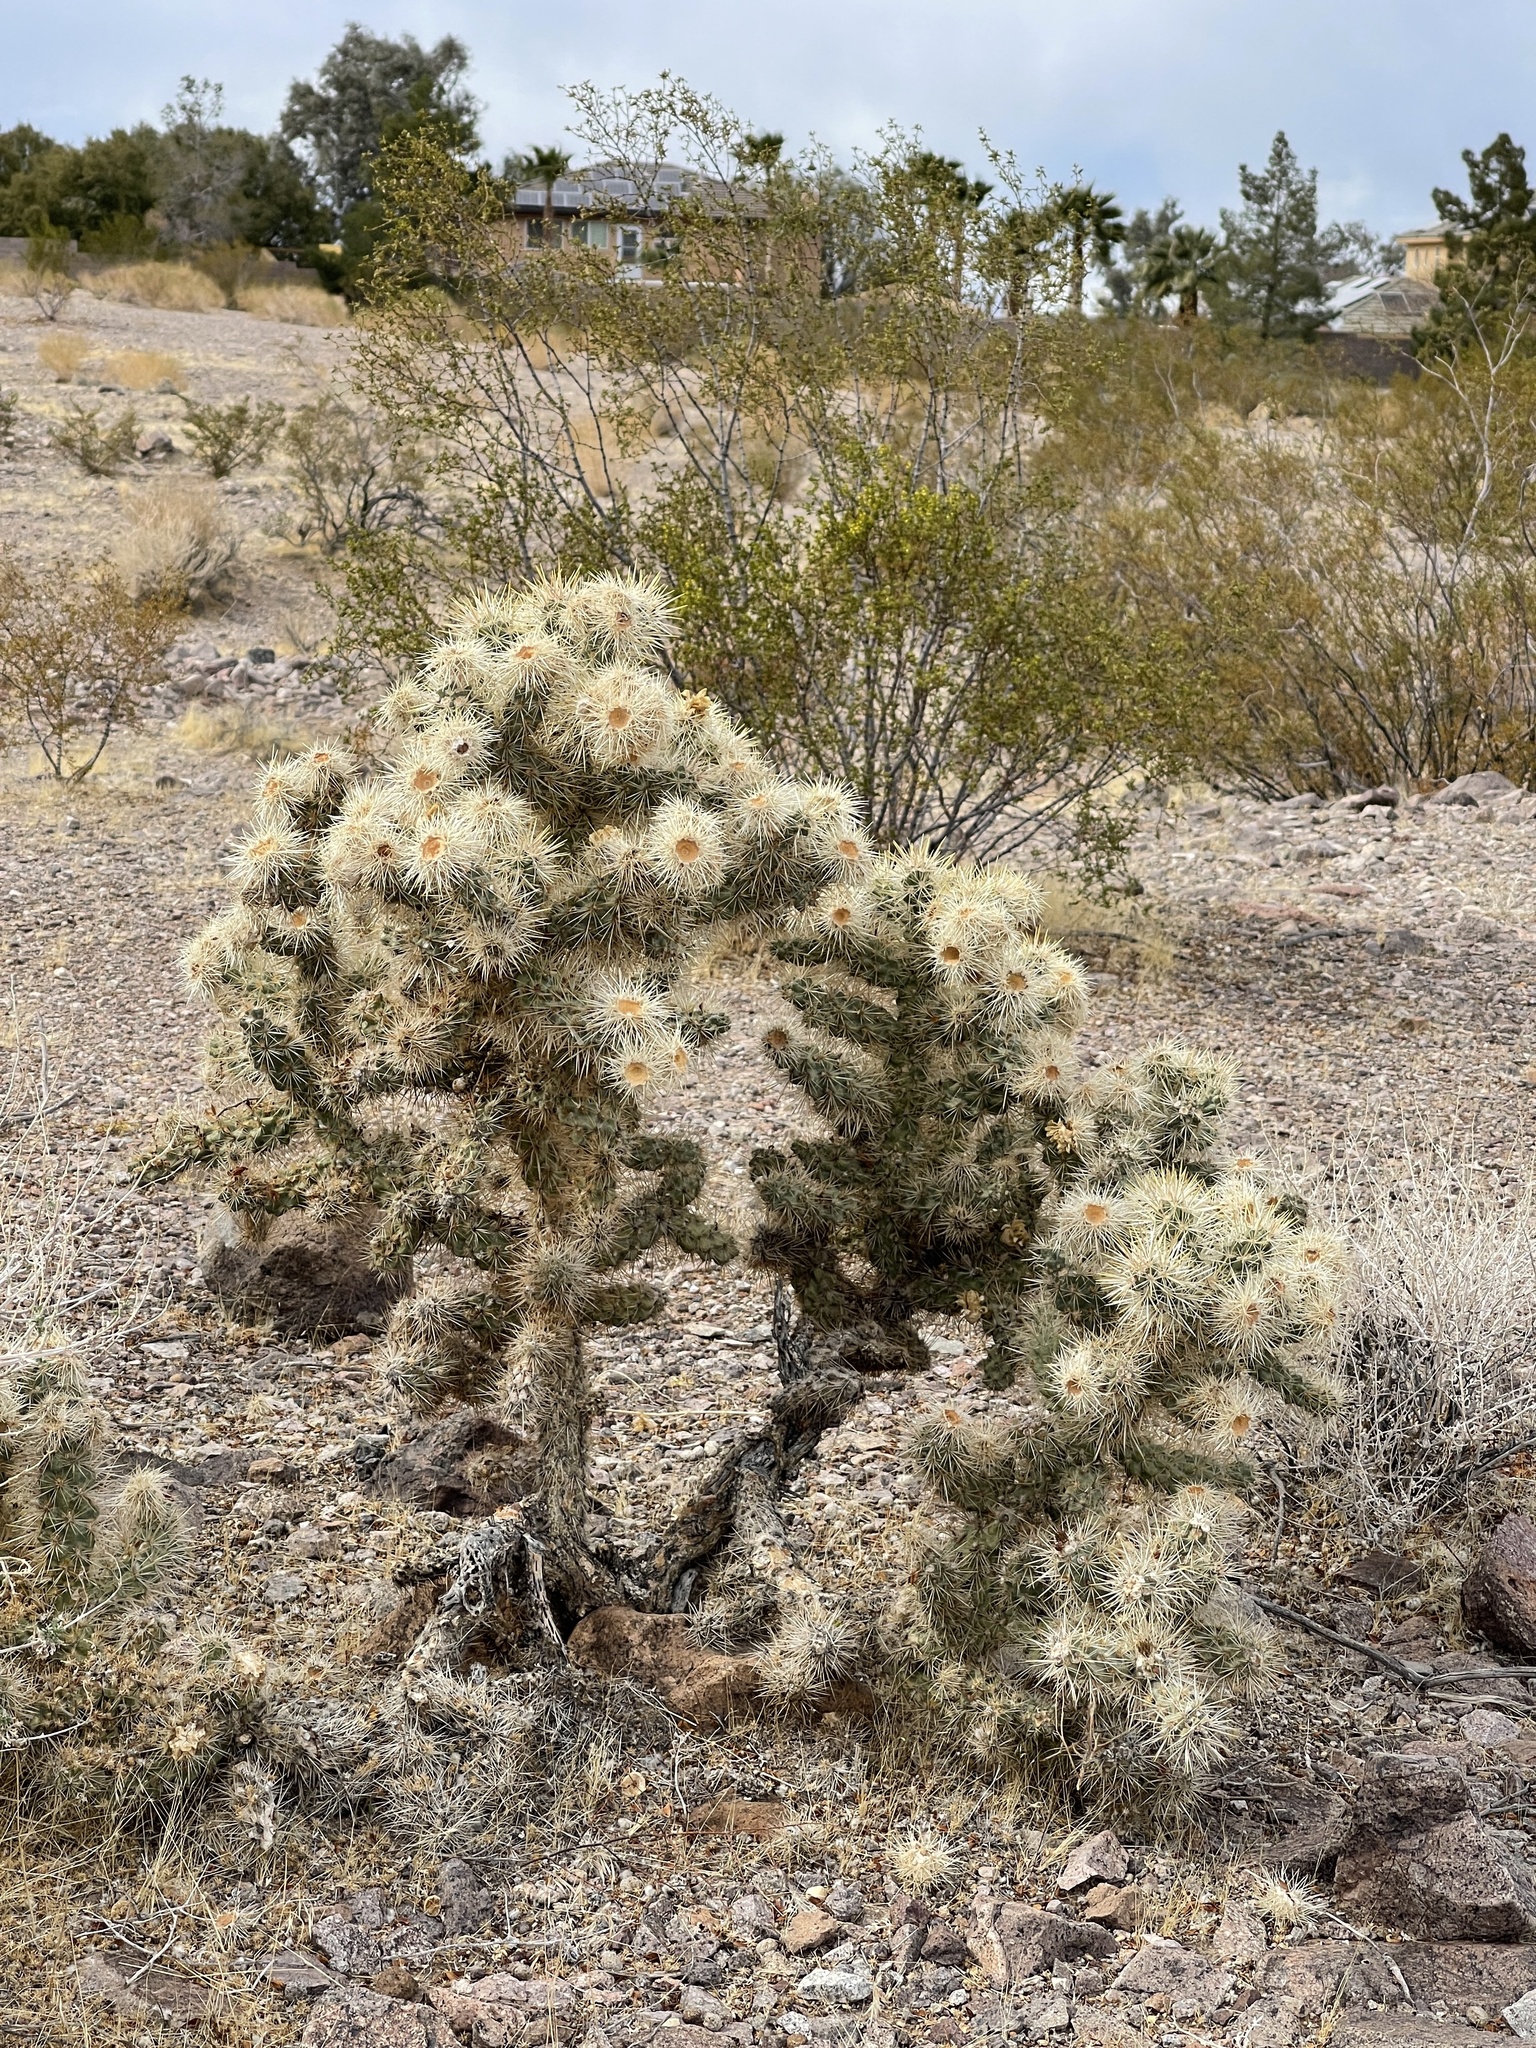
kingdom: Plantae
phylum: Tracheophyta
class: Magnoliopsida
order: Caryophyllales
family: Cactaceae
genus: Cylindropuntia
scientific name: Cylindropuntia echinocarpa
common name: Ground cholla
